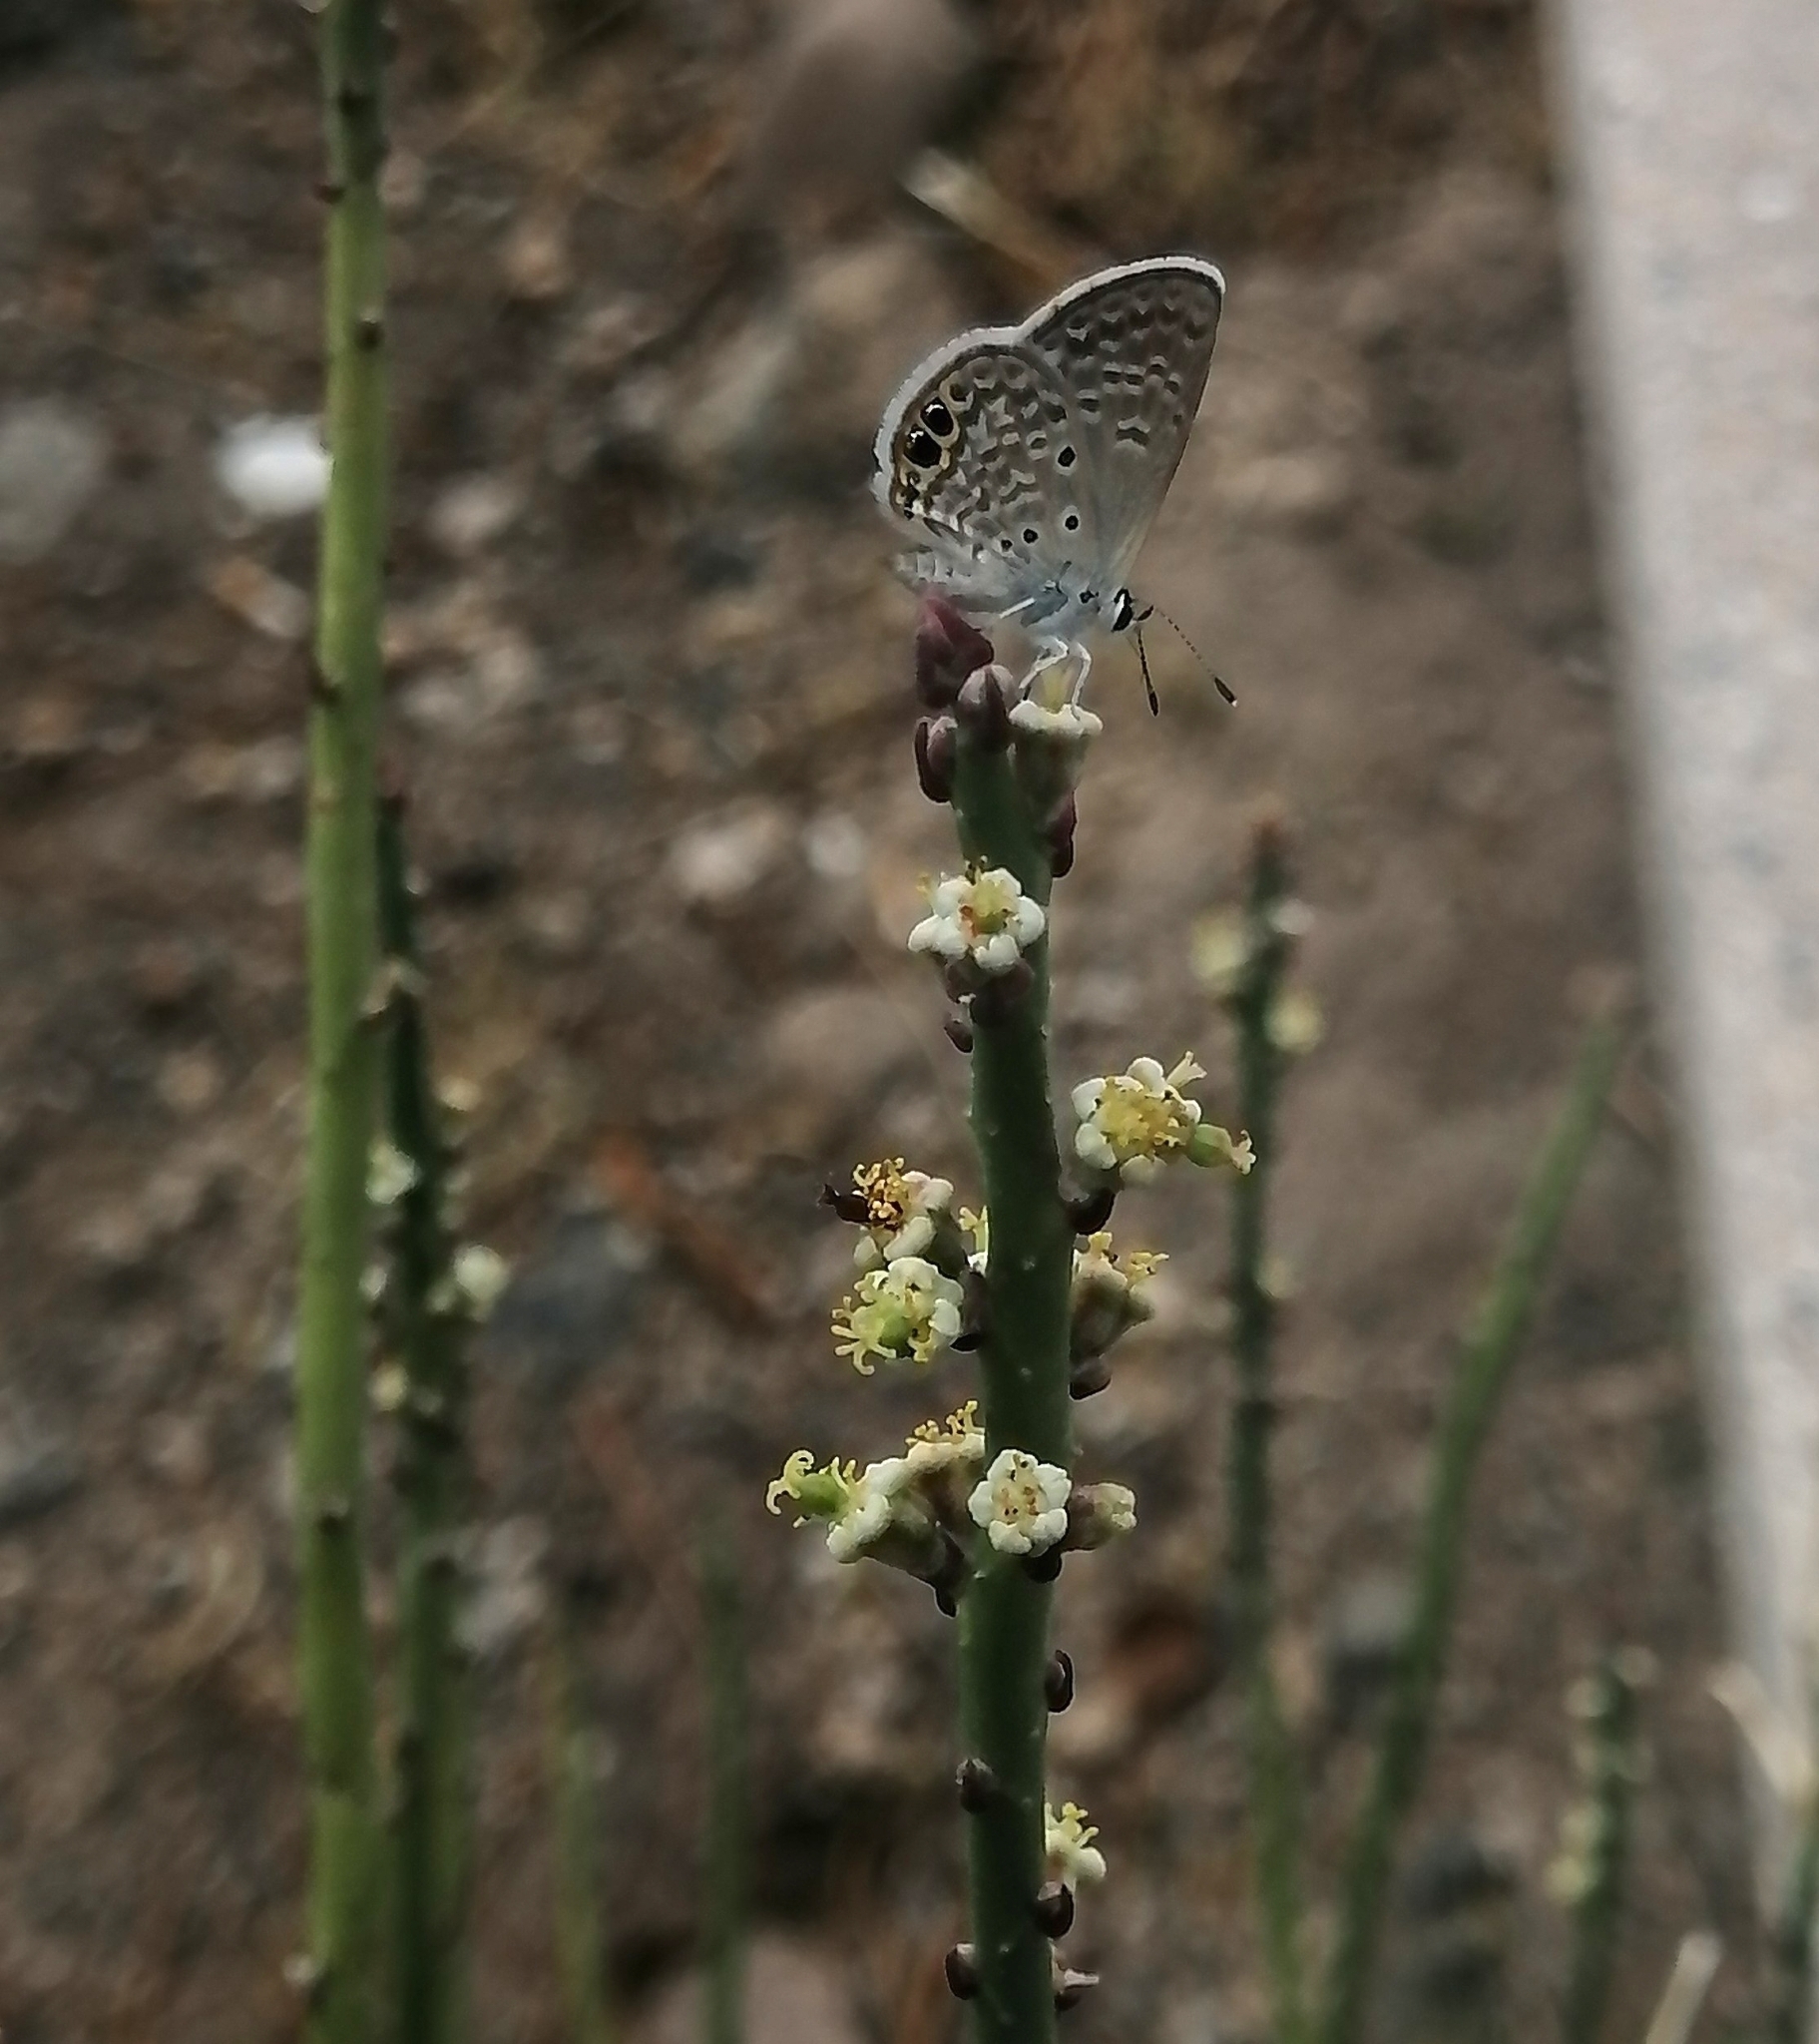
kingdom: Animalia
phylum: Arthropoda
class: Insecta
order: Lepidoptera
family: Lycaenidae
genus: Hemiargus
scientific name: Hemiargus ceraunus
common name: Ceraunus blue
